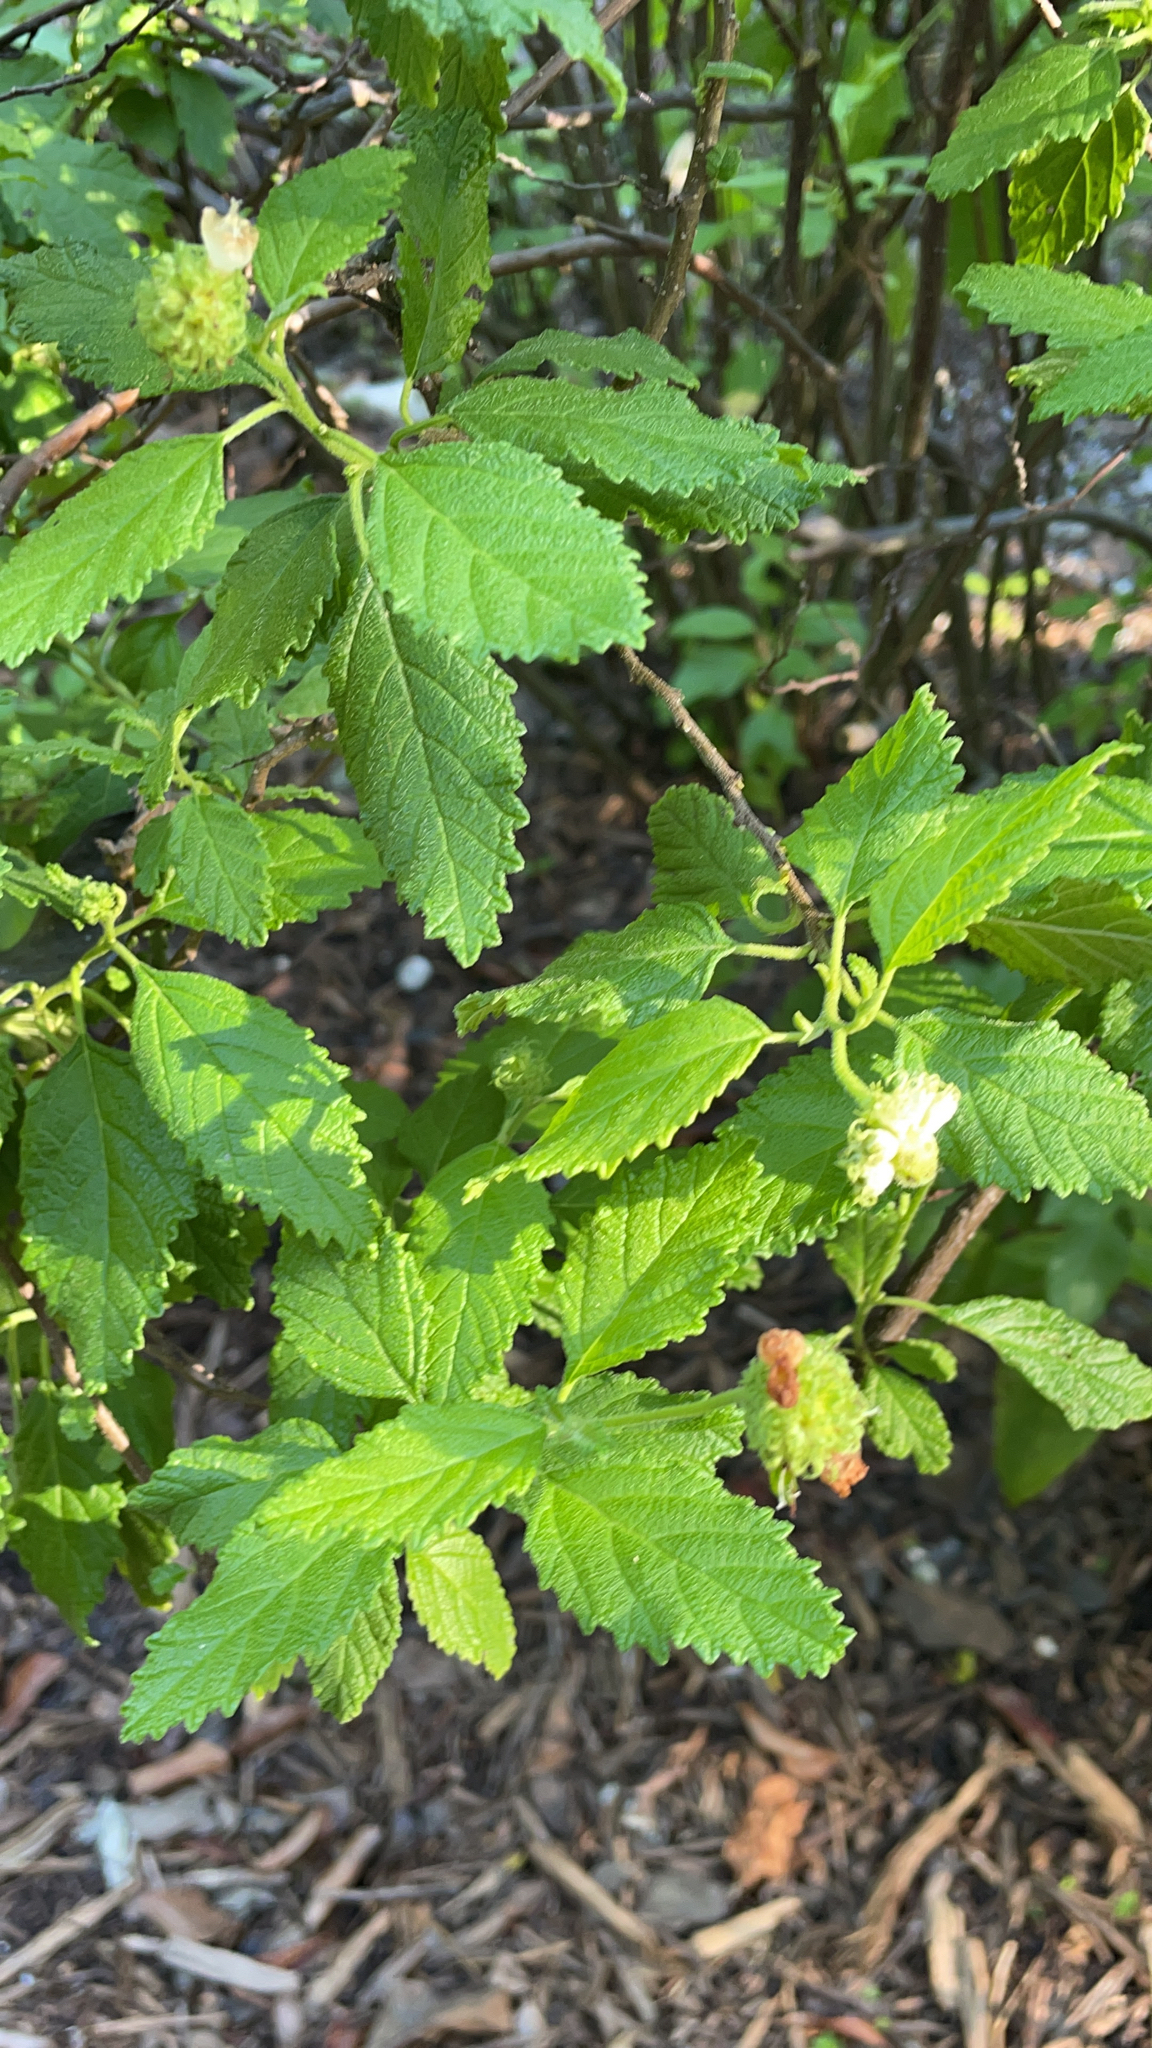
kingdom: Plantae
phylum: Tracheophyta
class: Magnoliopsida
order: Boraginales
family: Cordiaceae
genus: Varronia
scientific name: Varronia
